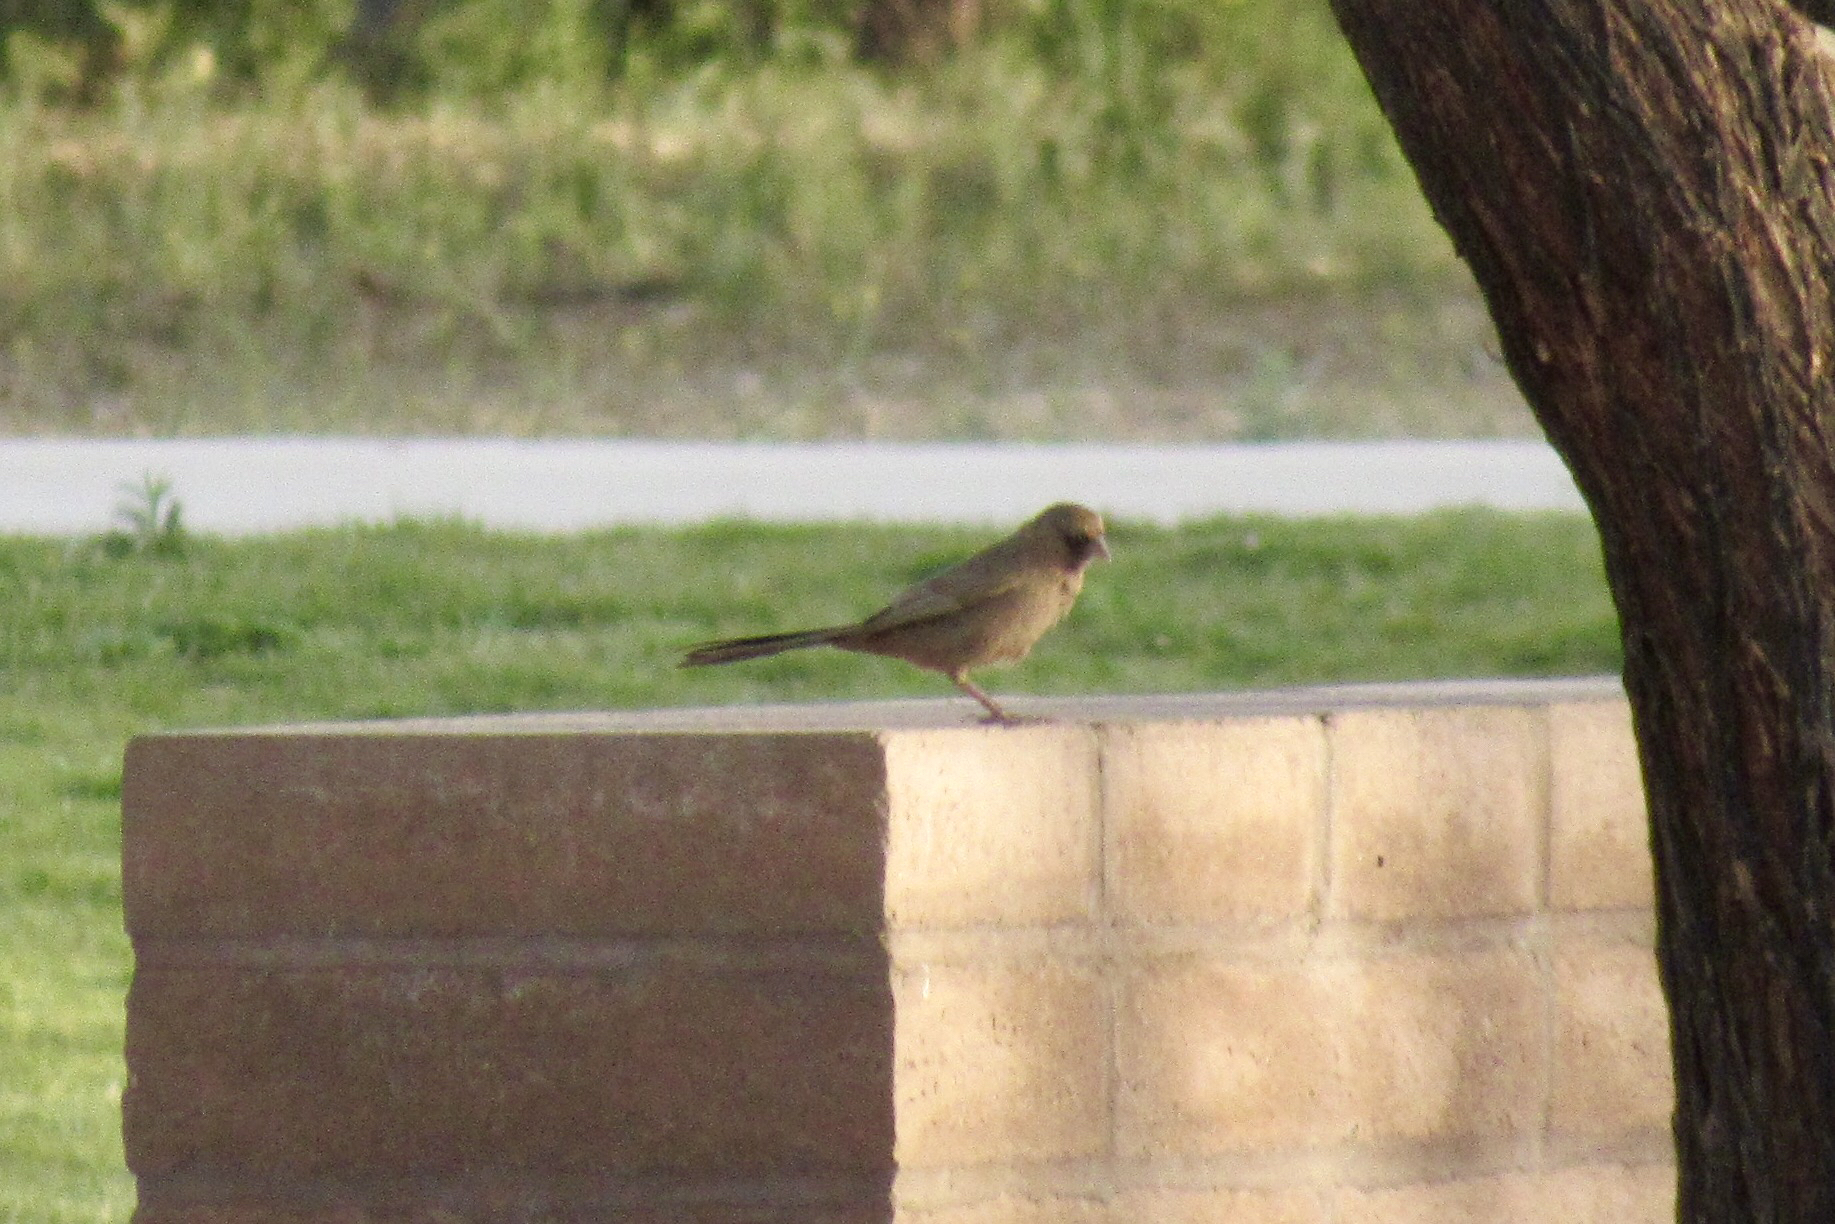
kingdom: Animalia
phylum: Chordata
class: Aves
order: Passeriformes
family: Passerellidae
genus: Melozone
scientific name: Melozone aberti
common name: Abert's towhee
